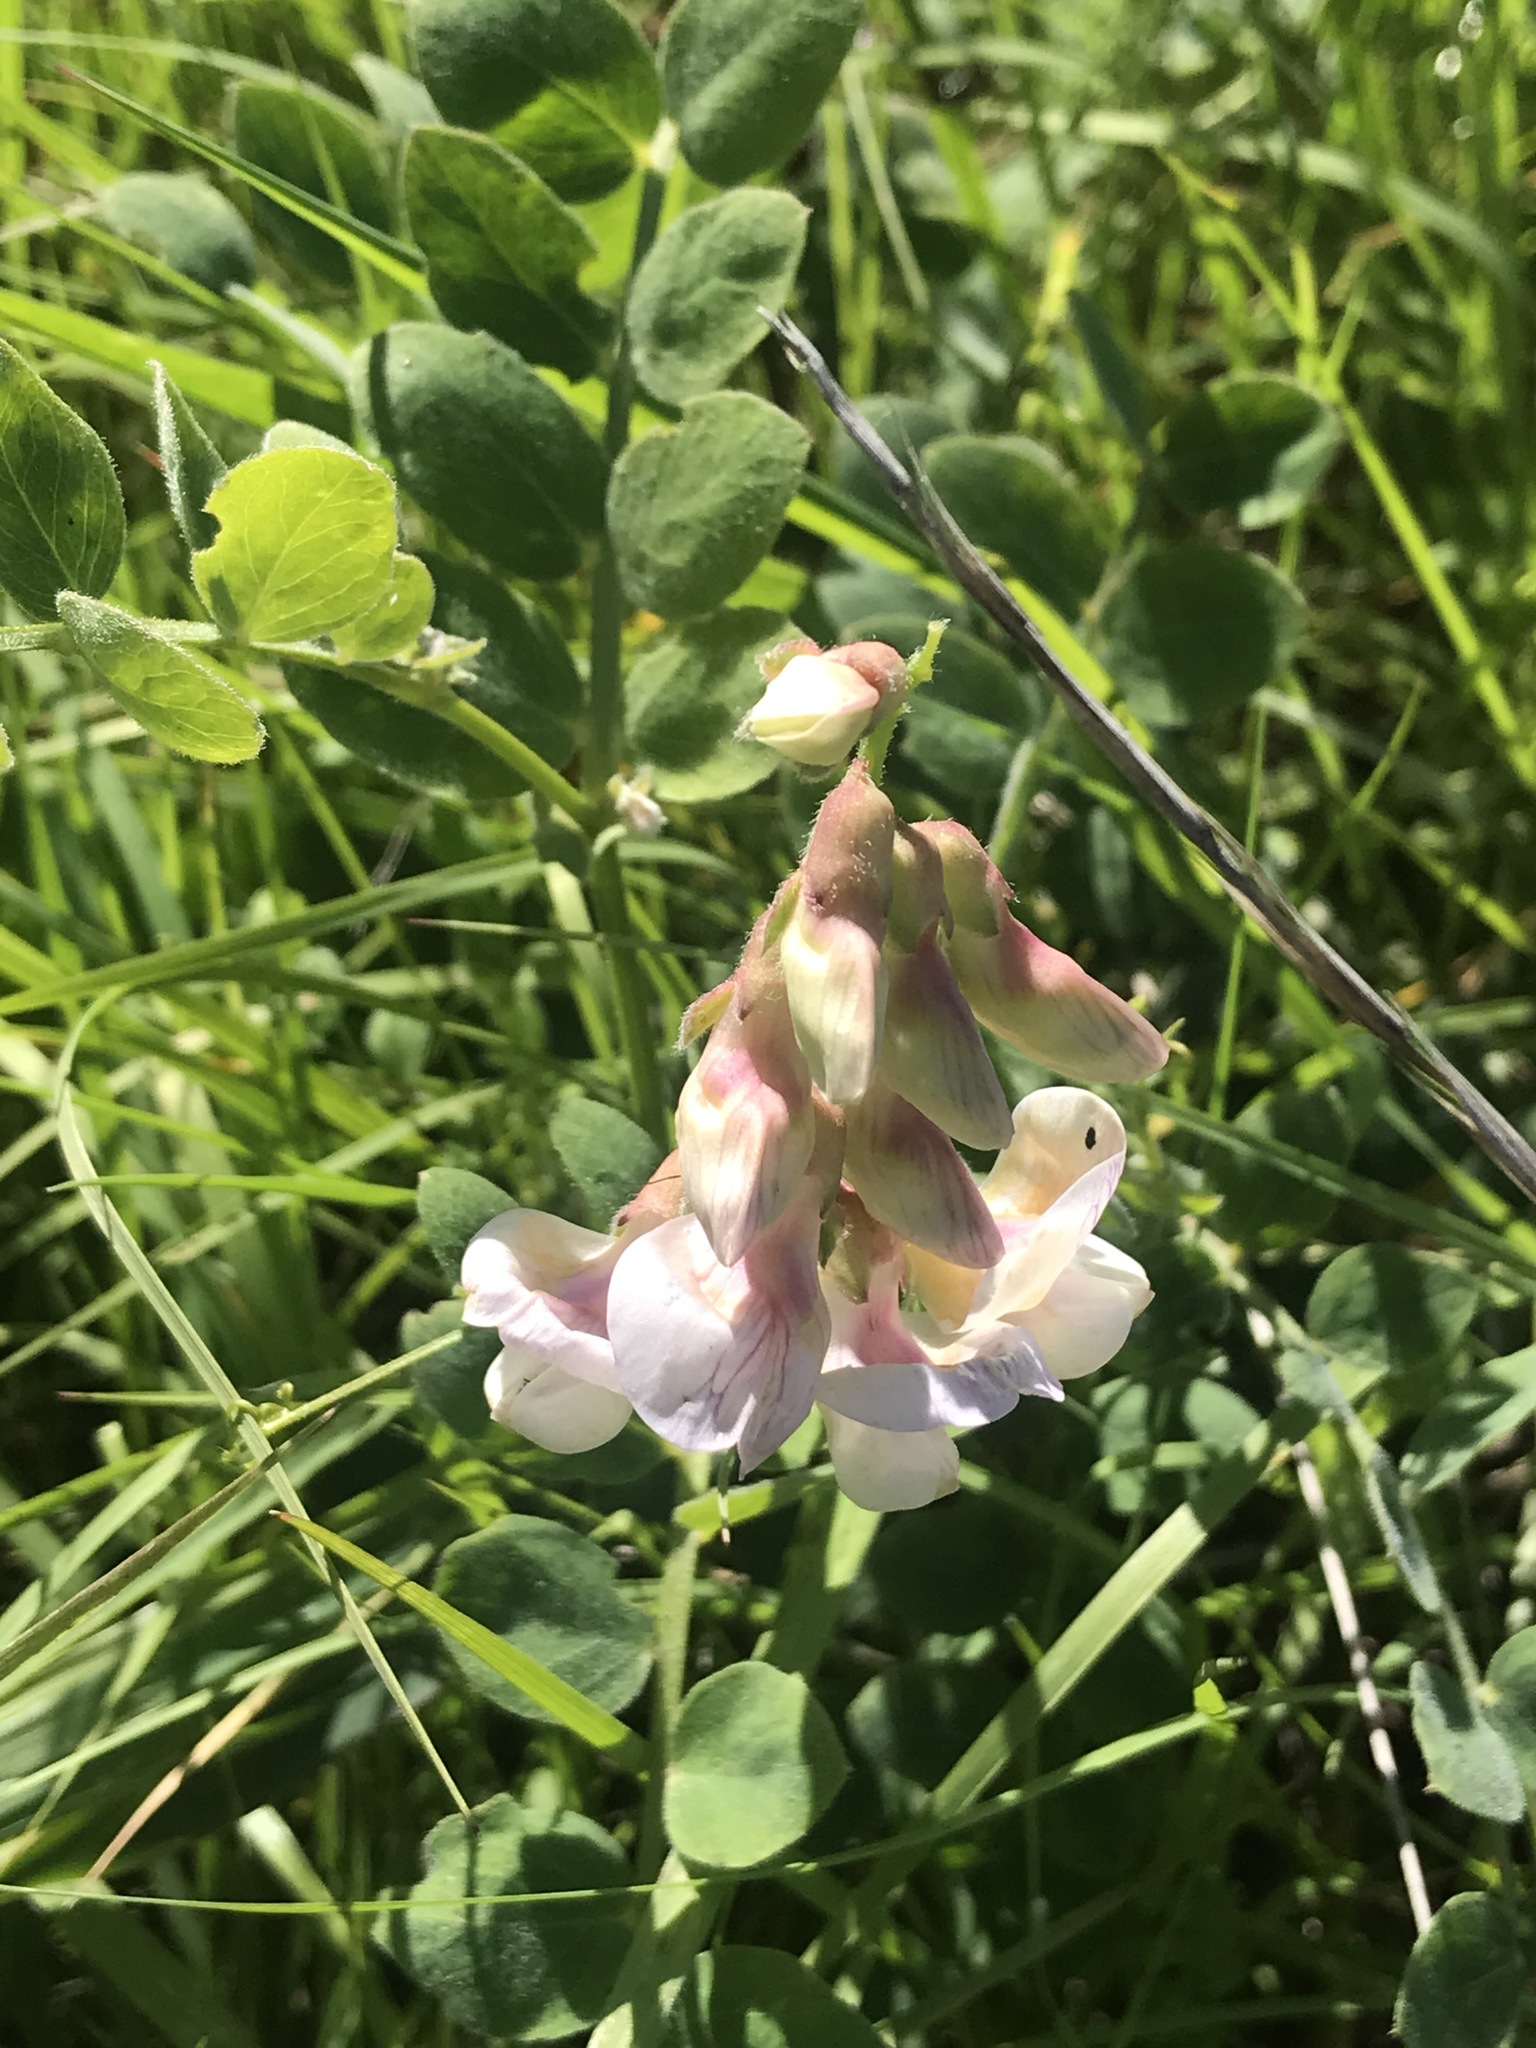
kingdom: Plantae
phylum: Tracheophyta
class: Magnoliopsida
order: Fabales
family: Fabaceae
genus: Lathyrus
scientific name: Lathyrus vestitus
